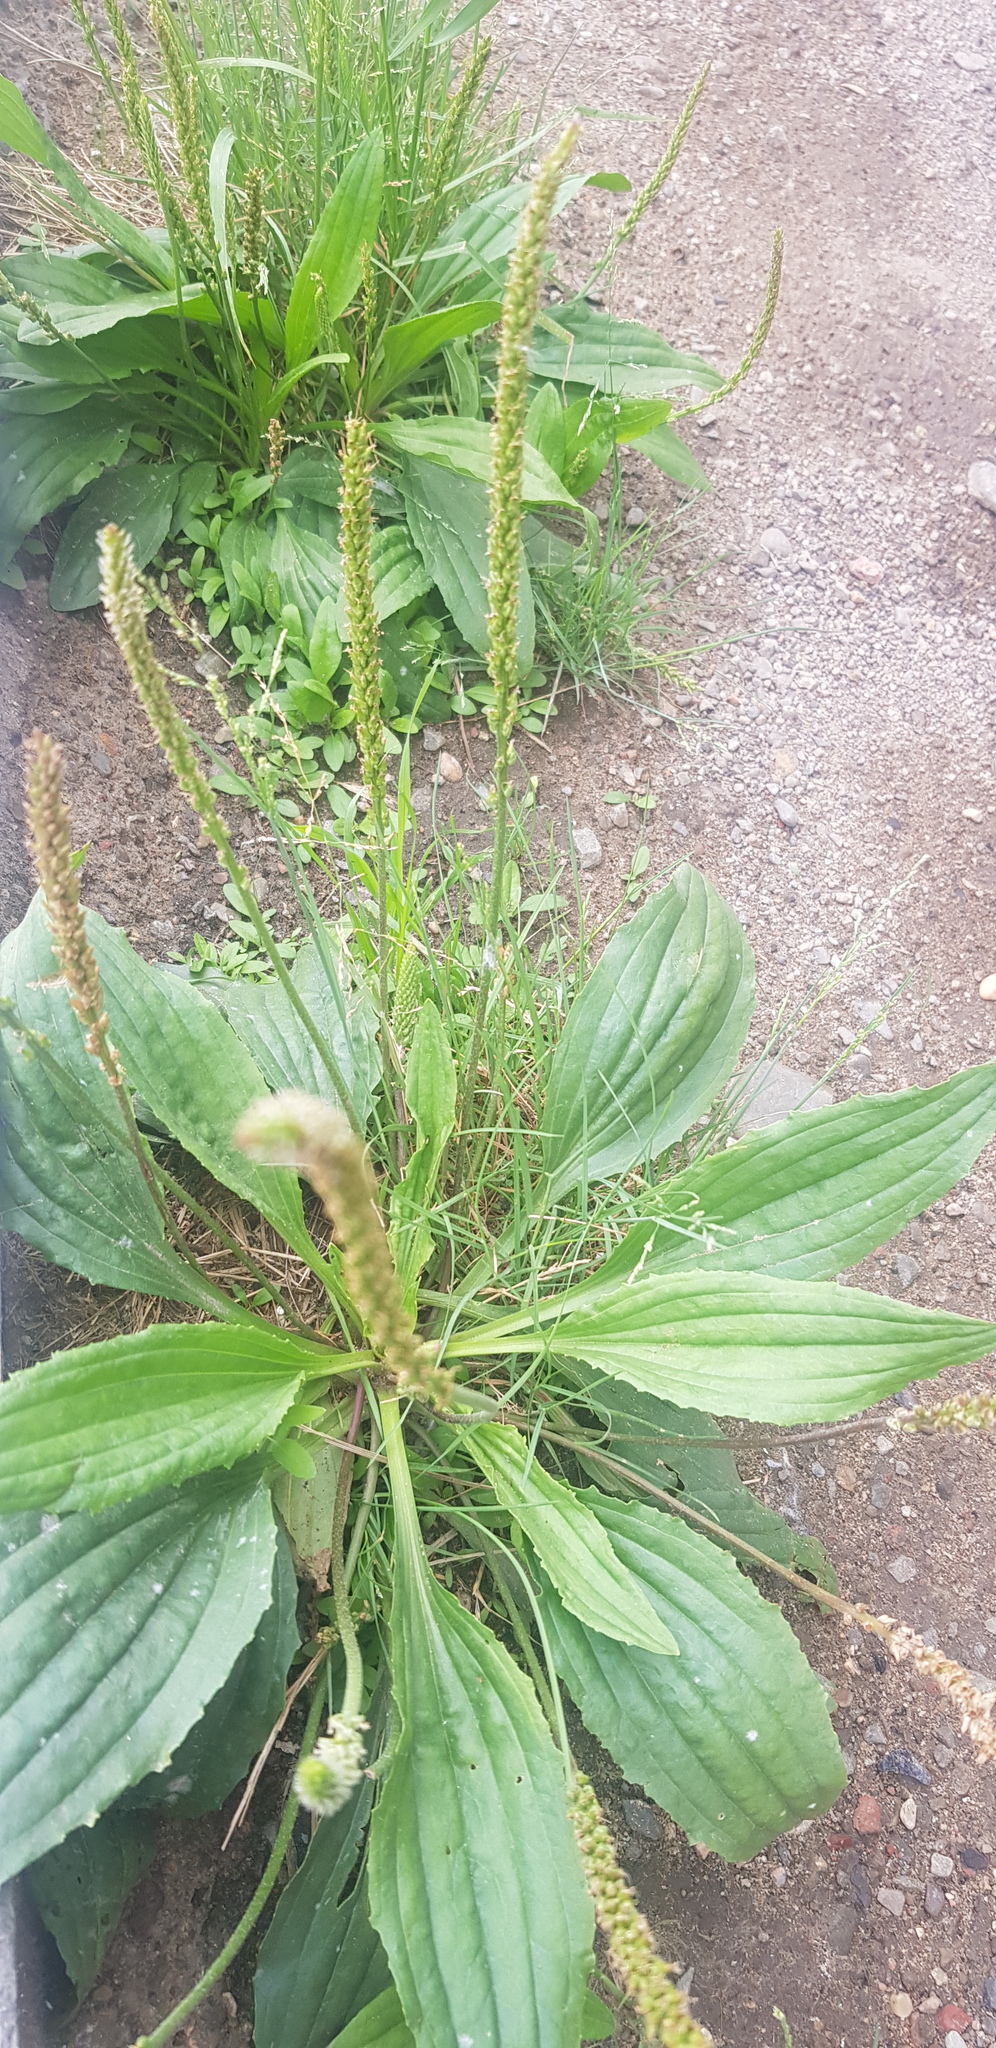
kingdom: Plantae
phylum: Tracheophyta
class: Magnoliopsida
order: Lamiales
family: Plantaginaceae
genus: Plantago
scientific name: Plantago depressa
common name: Depressed plantain
